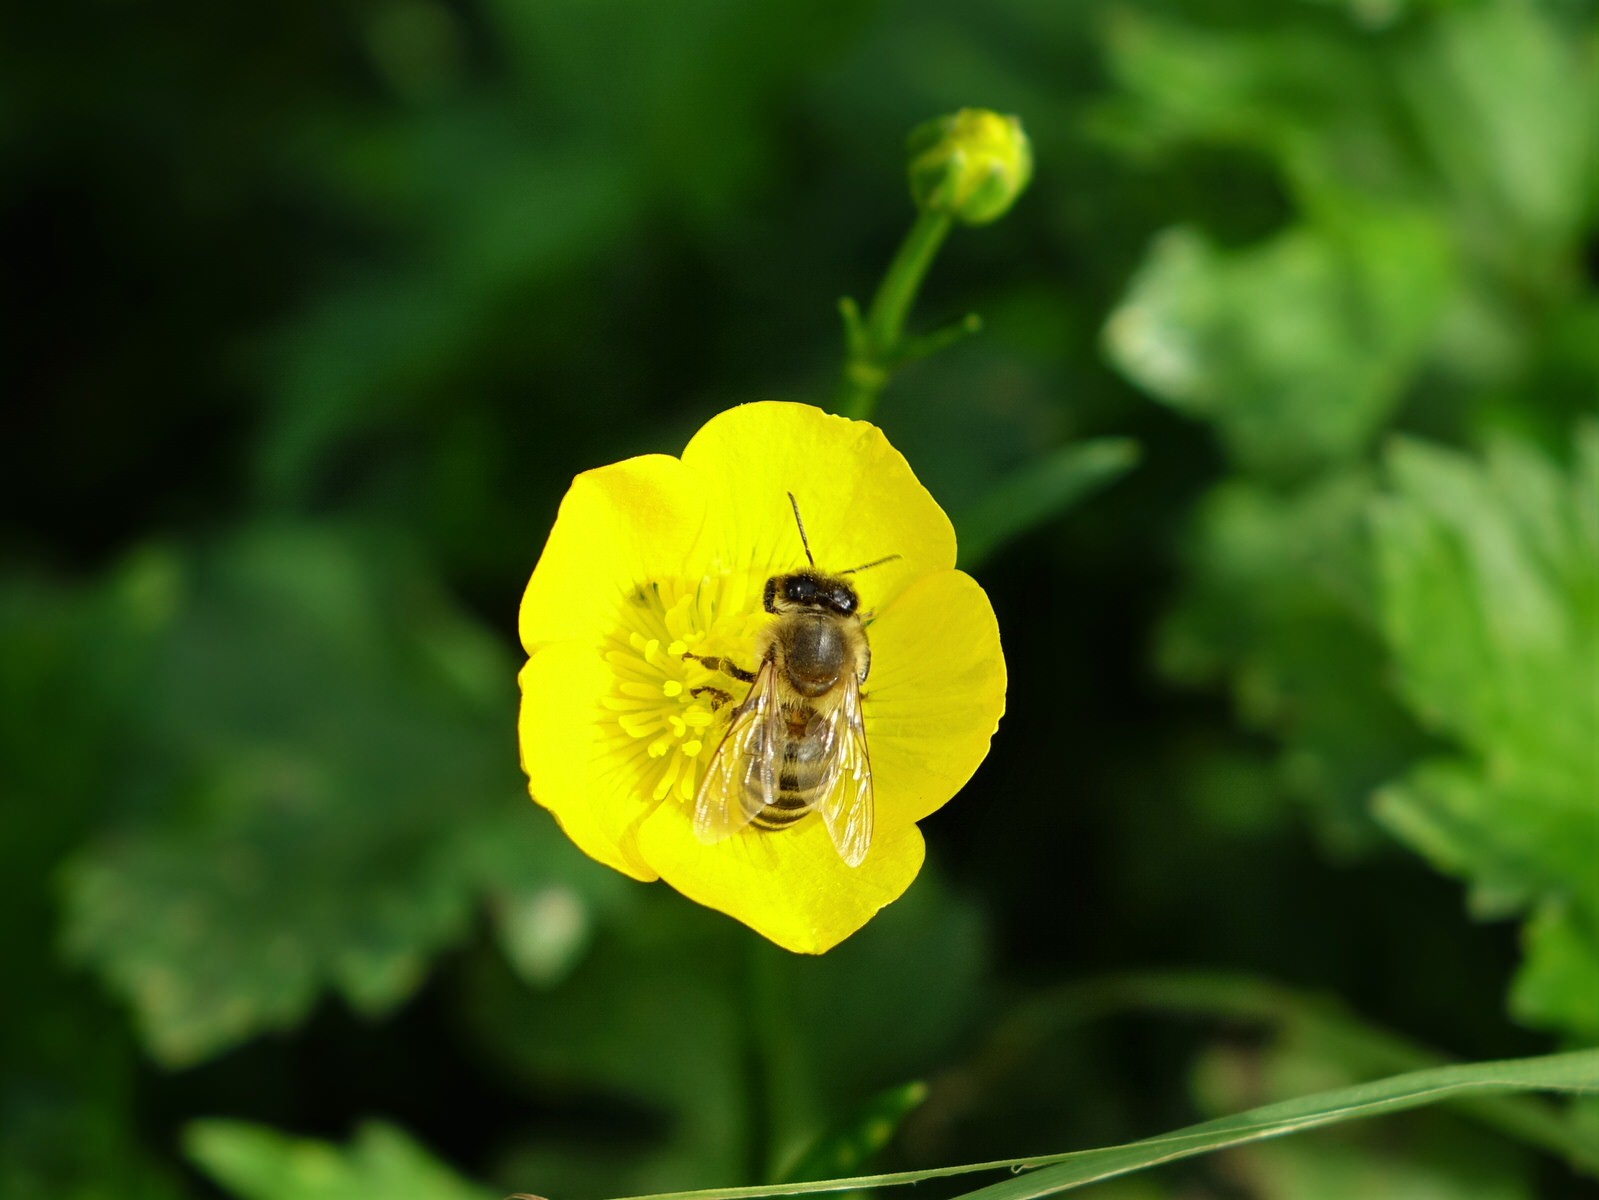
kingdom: Animalia
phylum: Arthropoda
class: Insecta
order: Hymenoptera
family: Apidae
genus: Apis
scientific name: Apis mellifera
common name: Honey bee
